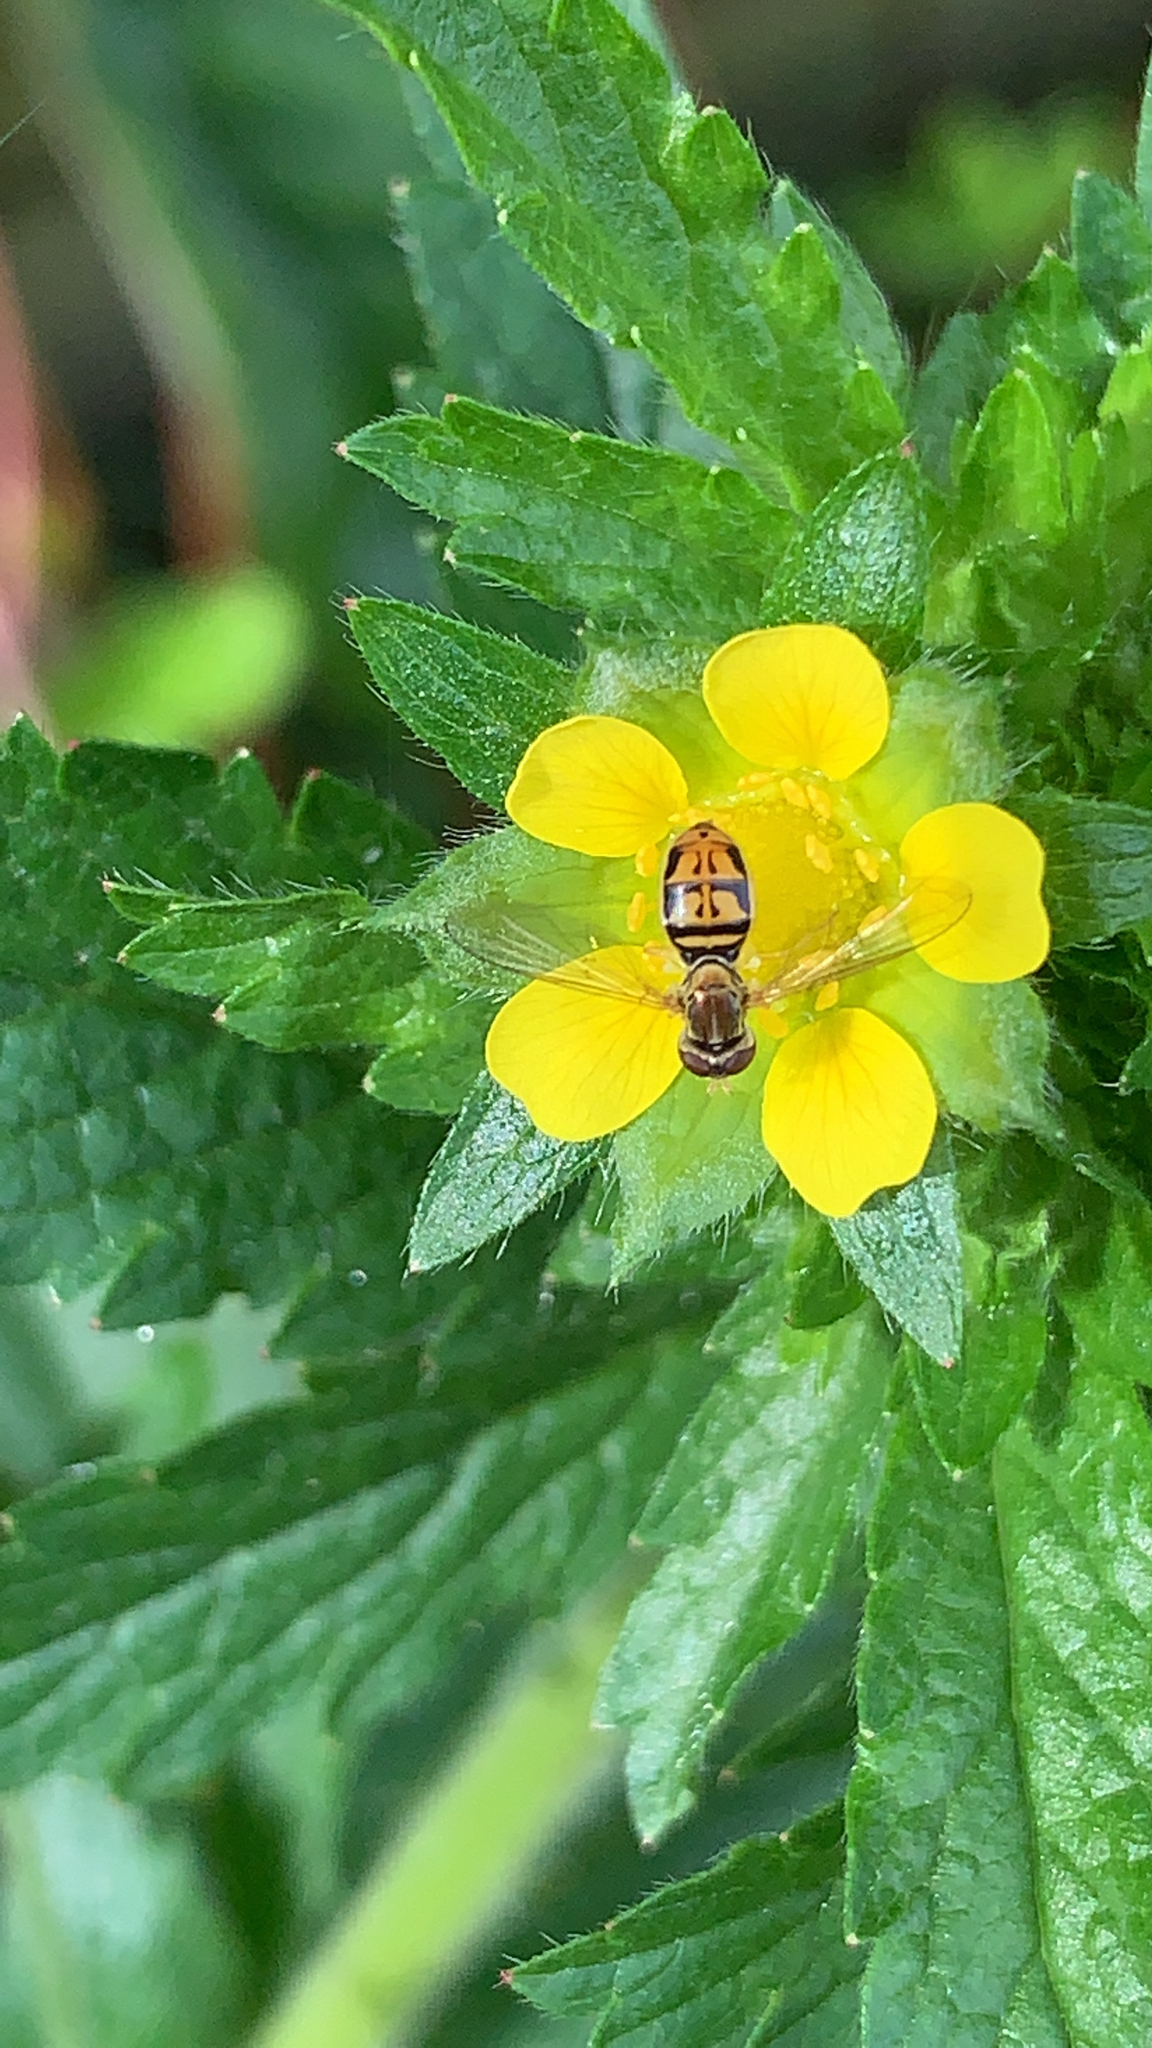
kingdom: Animalia
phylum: Arthropoda
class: Insecta
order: Diptera
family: Syrphidae
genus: Toxomerus
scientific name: Toxomerus marginatus
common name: Syrphid fly
